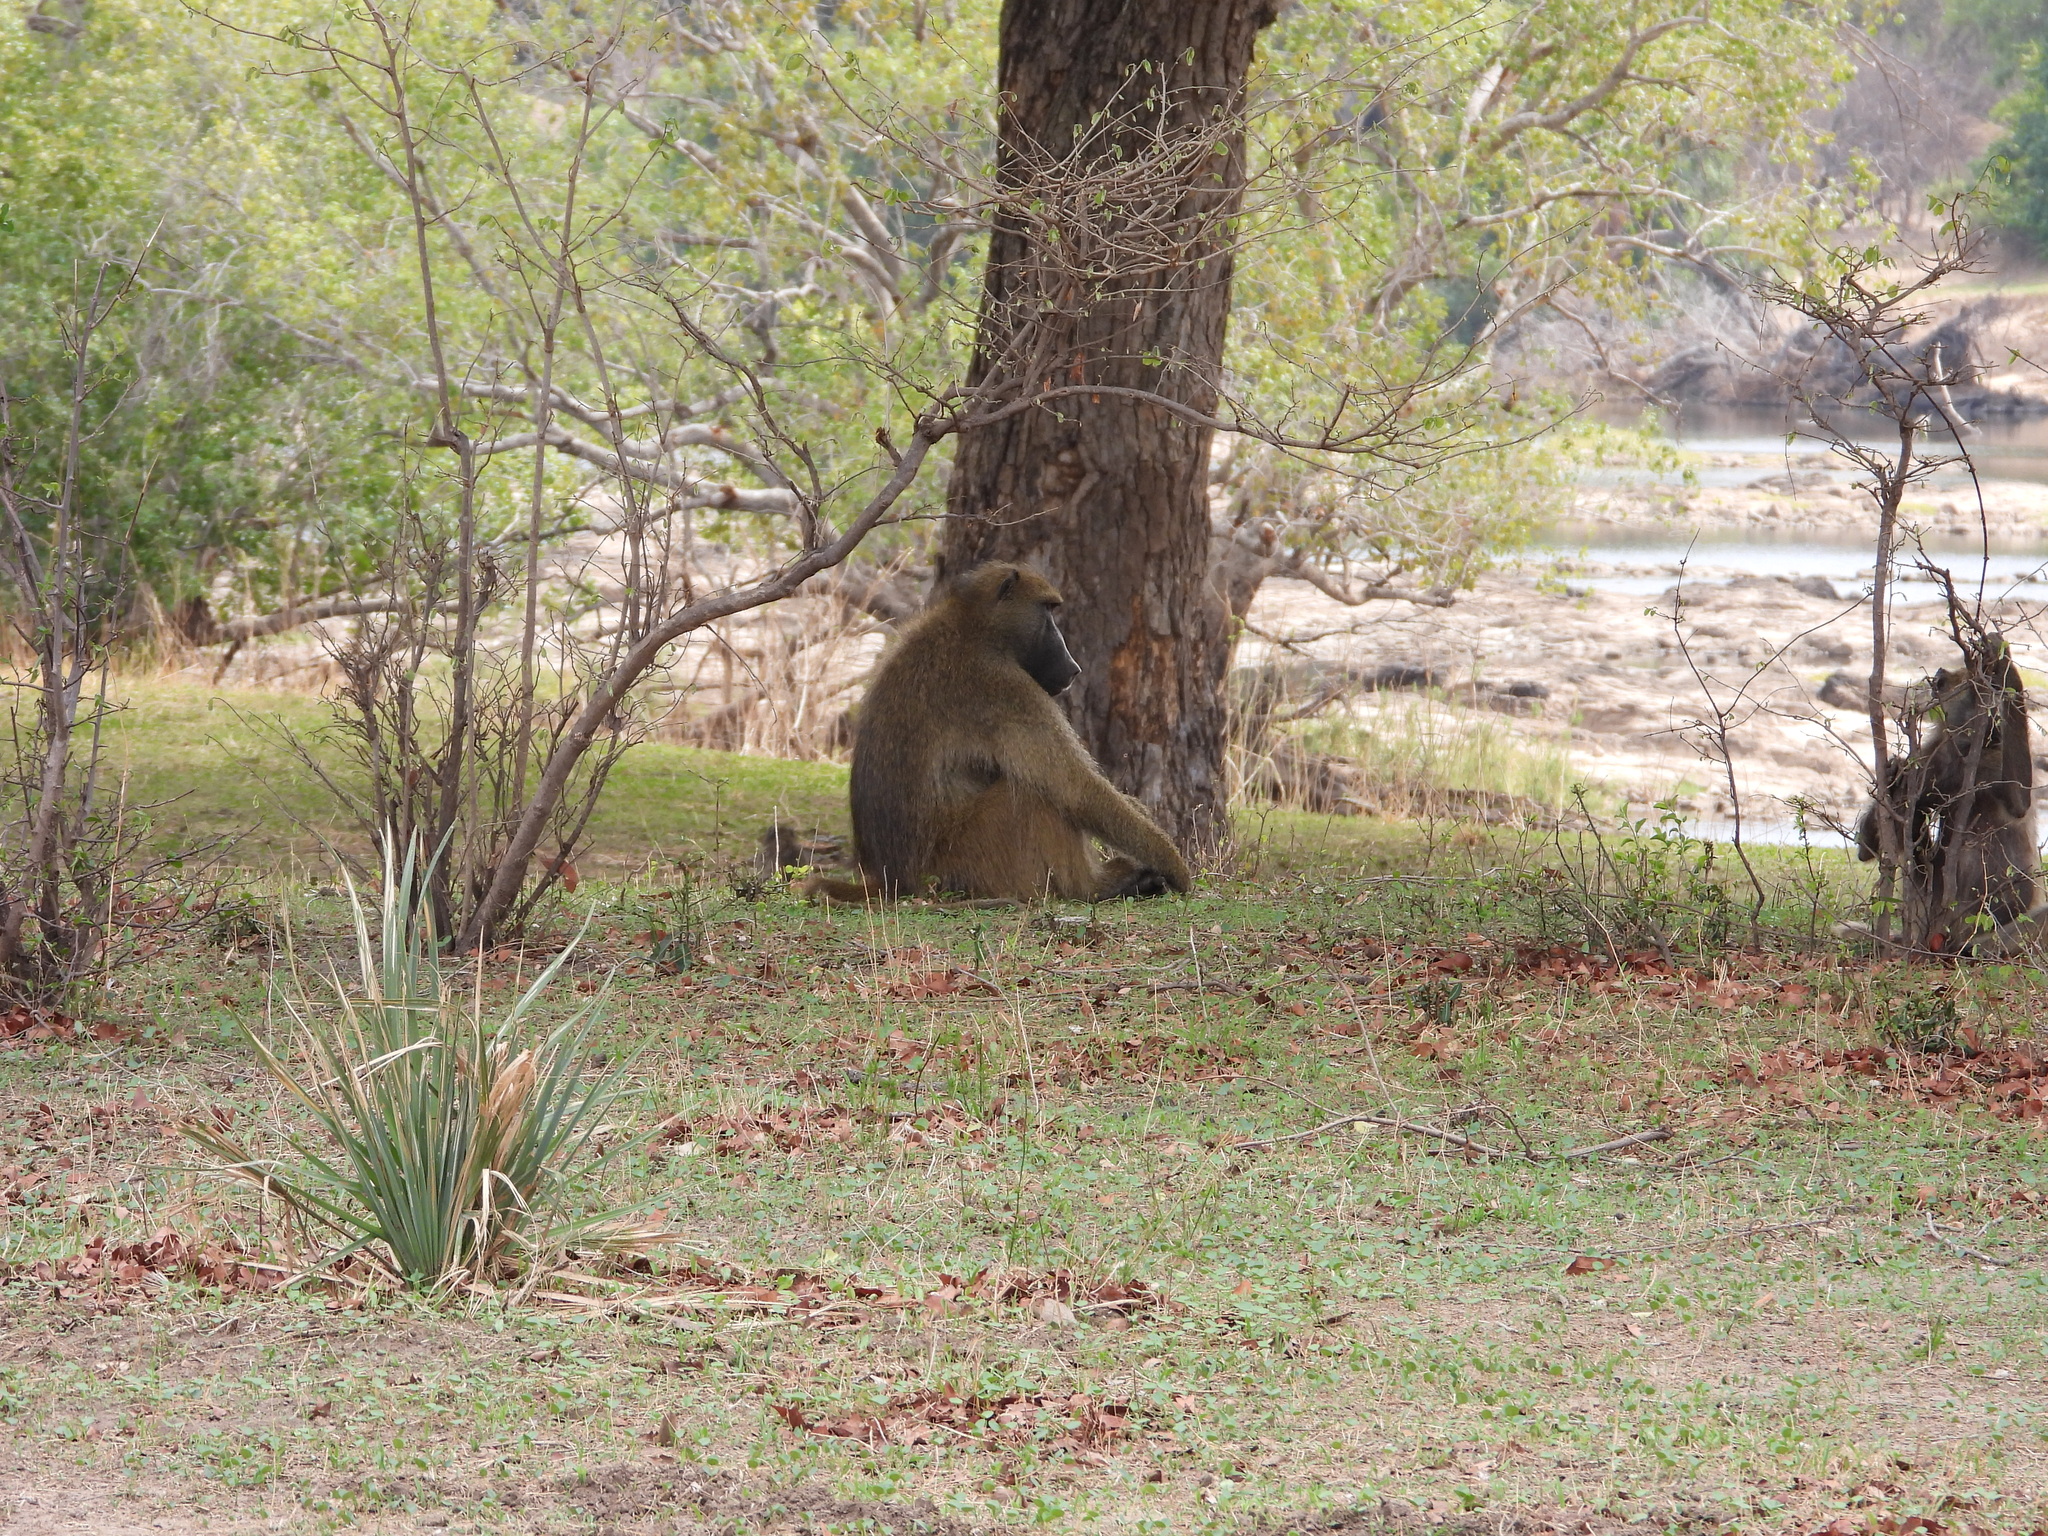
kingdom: Animalia
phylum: Chordata
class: Mammalia
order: Primates
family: Cercopithecidae
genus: Papio
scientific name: Papio ursinus
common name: Chacma baboon
